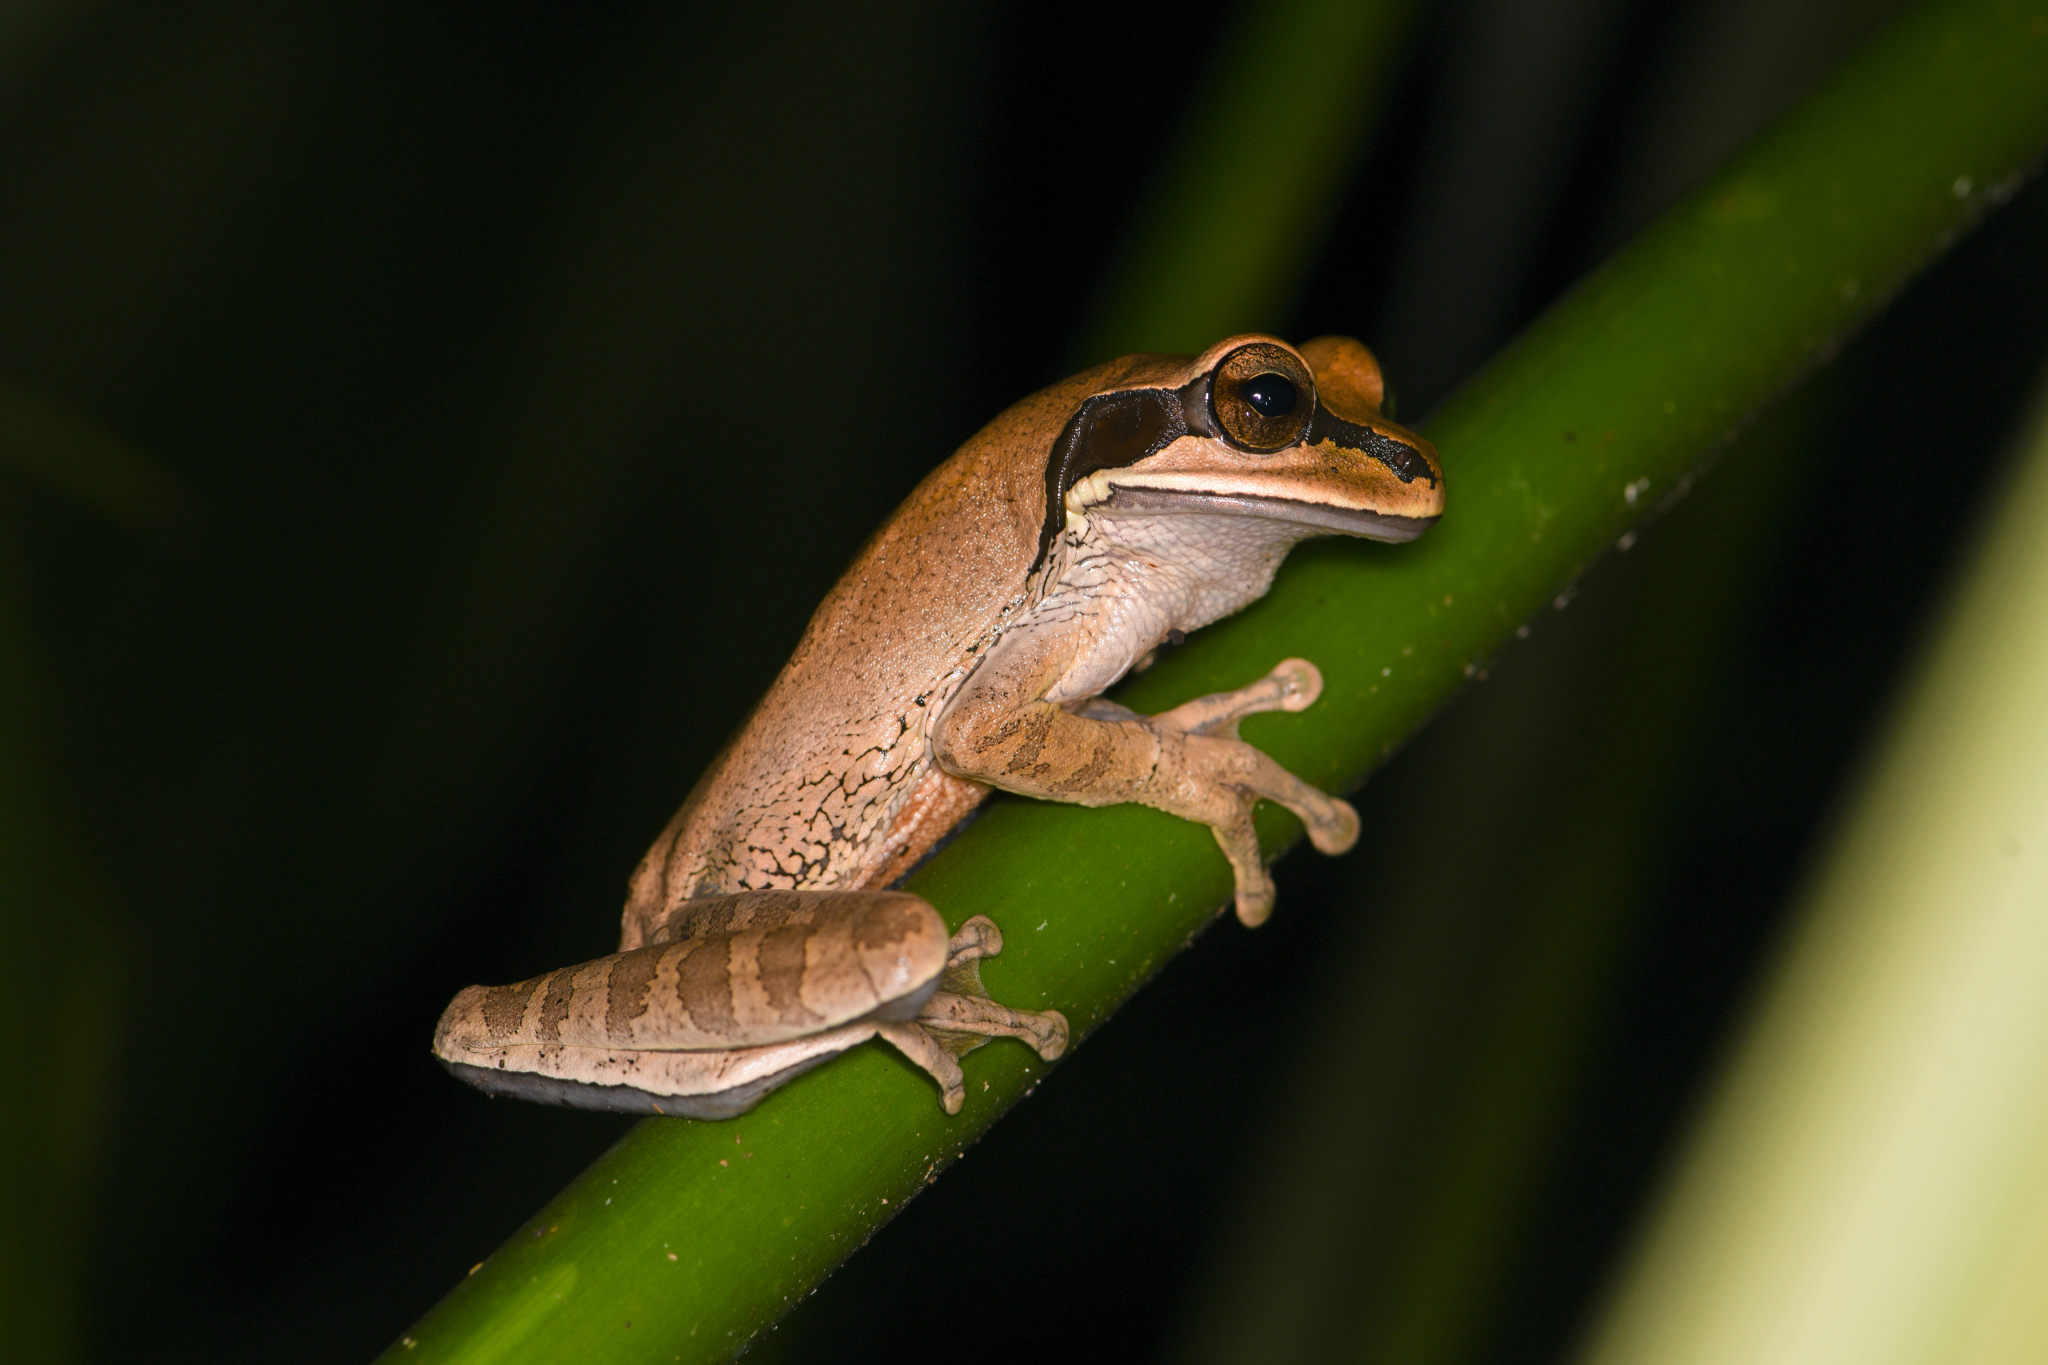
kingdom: Animalia
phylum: Chordata
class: Amphibia
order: Anura
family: Hylidae
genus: Smilisca
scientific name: Smilisca phaeota
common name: Central american smilisca
